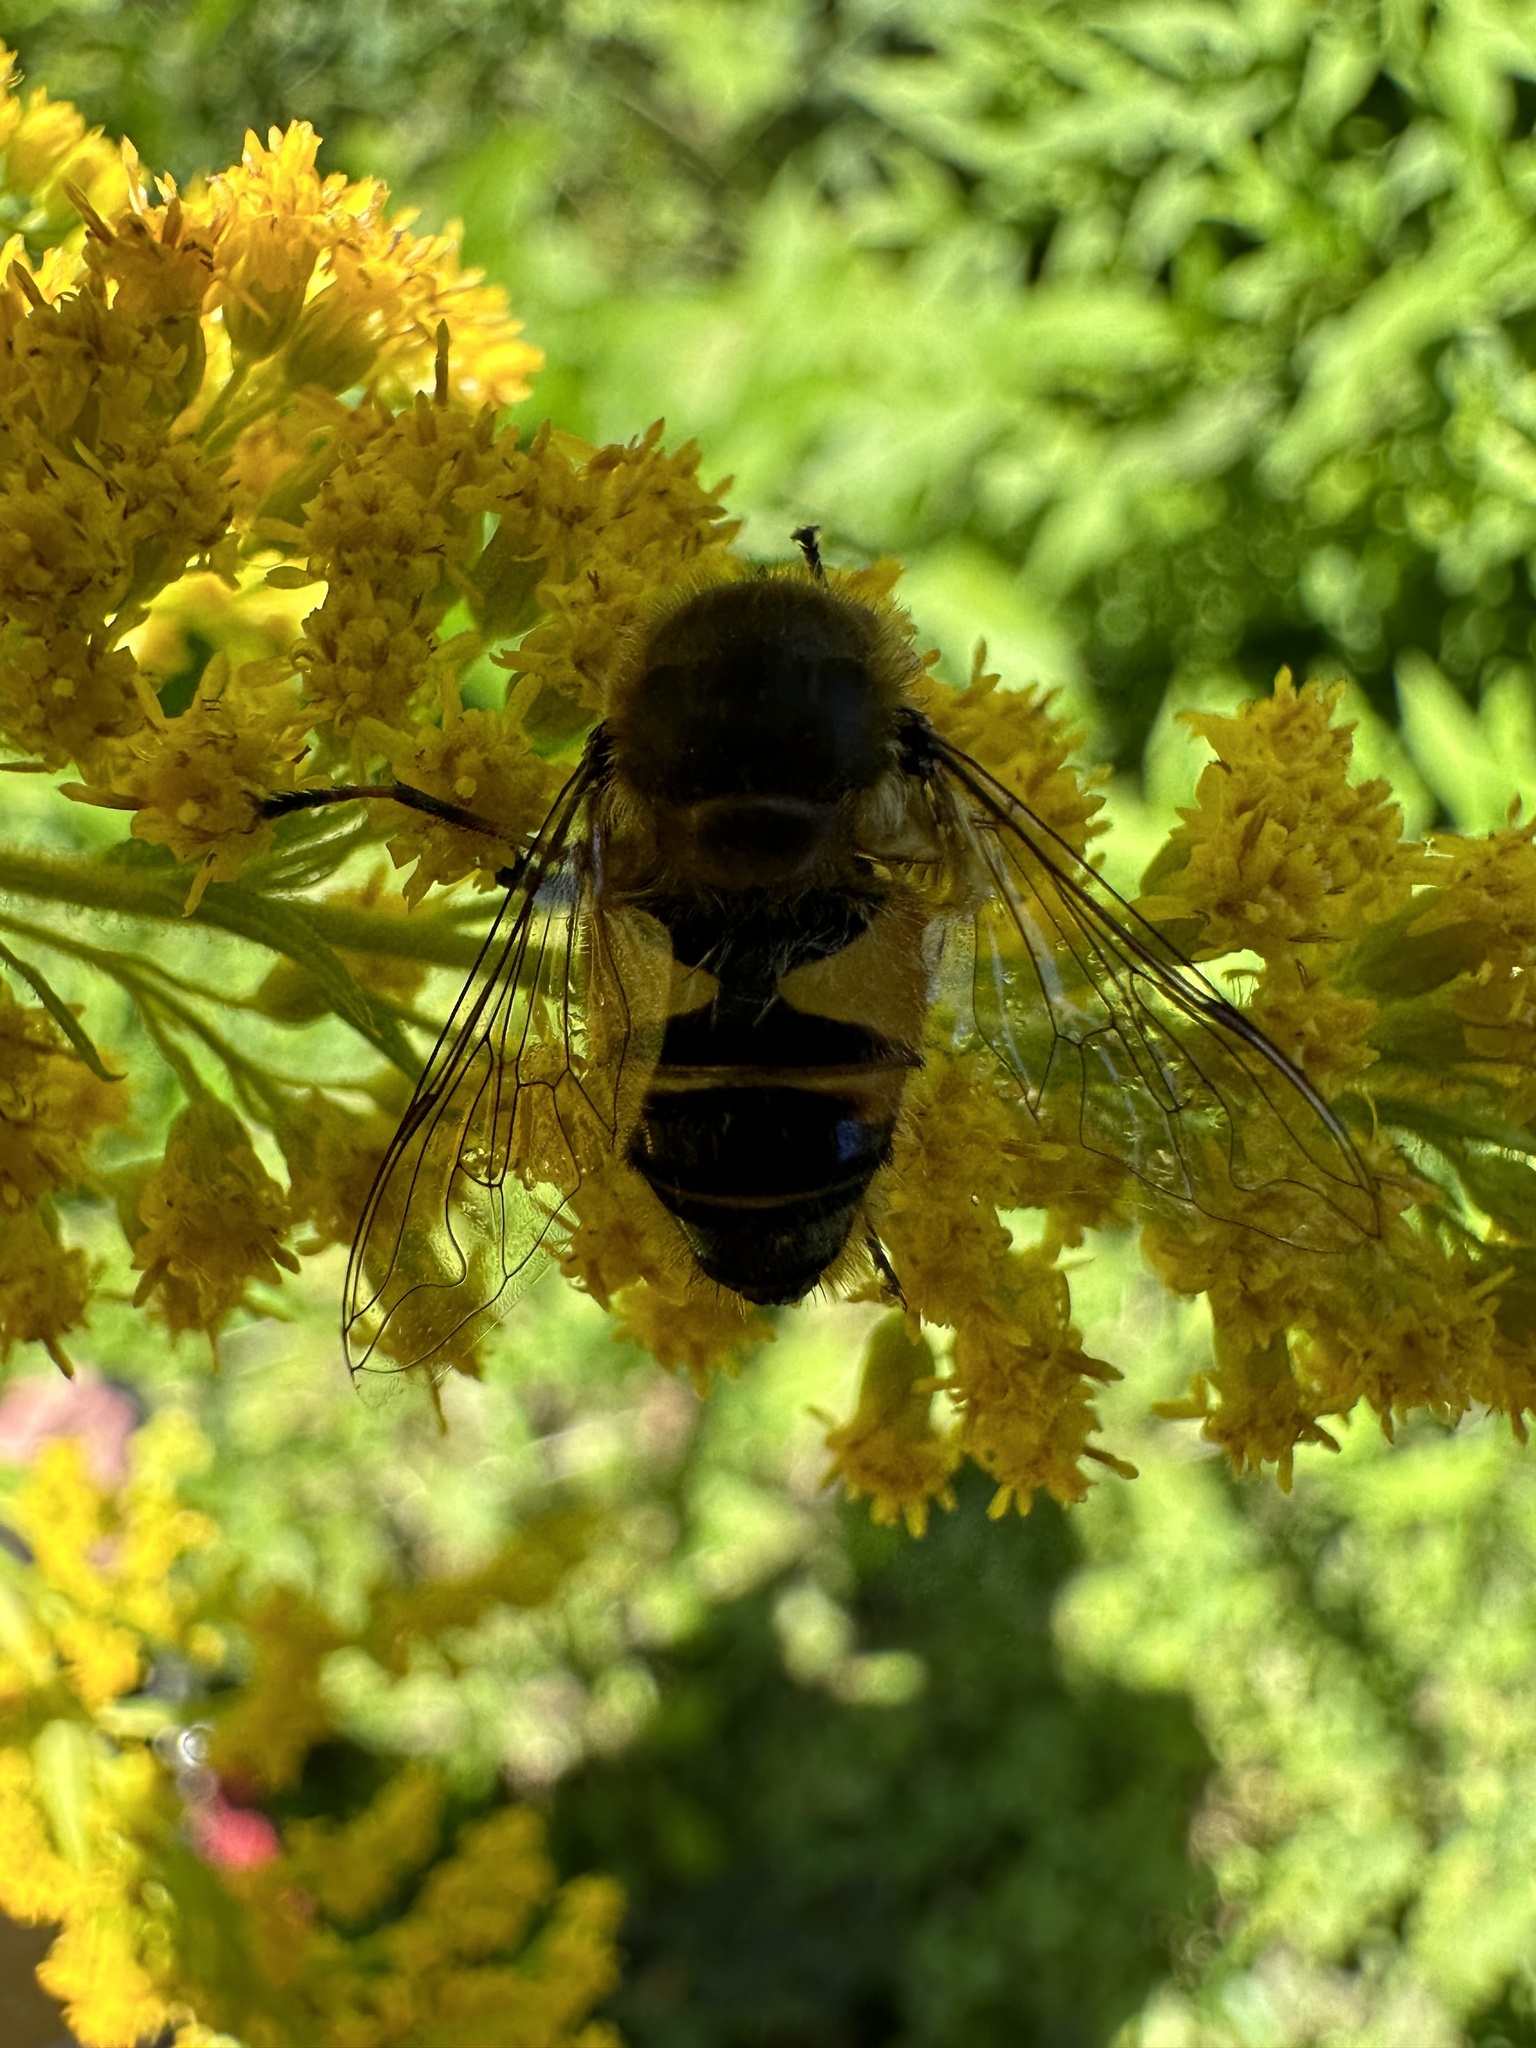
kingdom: Animalia
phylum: Arthropoda
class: Insecta
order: Diptera
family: Syrphidae
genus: Eristalis
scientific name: Eristalis pertinax
